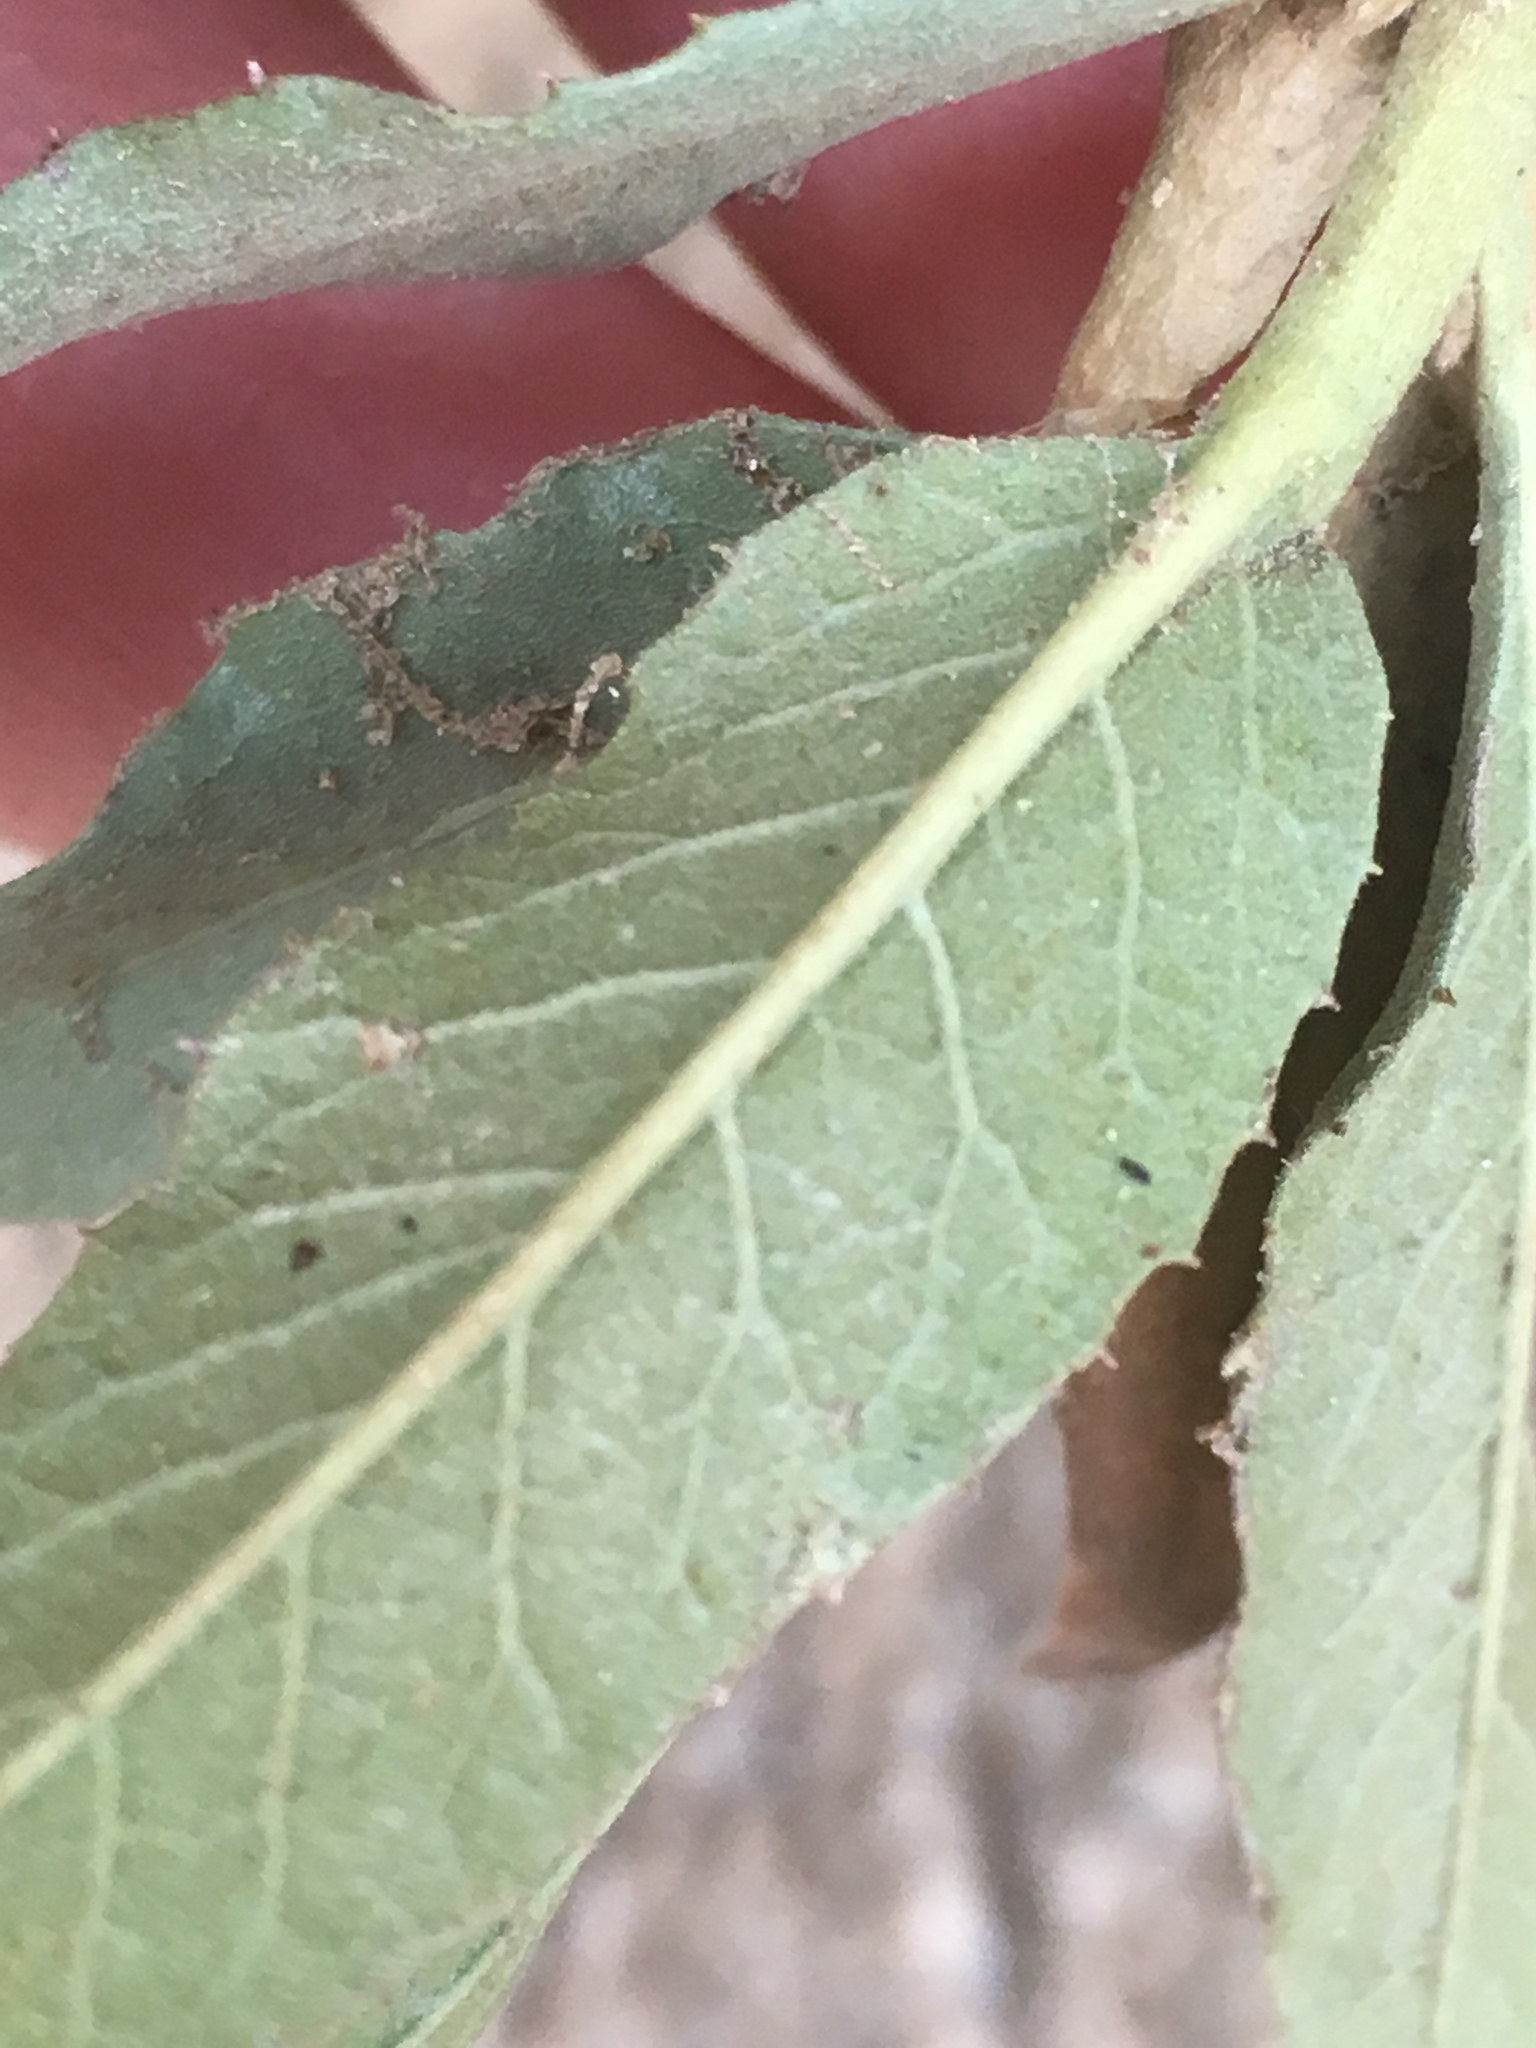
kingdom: Plantae
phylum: Tracheophyta
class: Magnoliopsida
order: Asterales
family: Asteraceae
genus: Trixis
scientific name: Trixis californica
